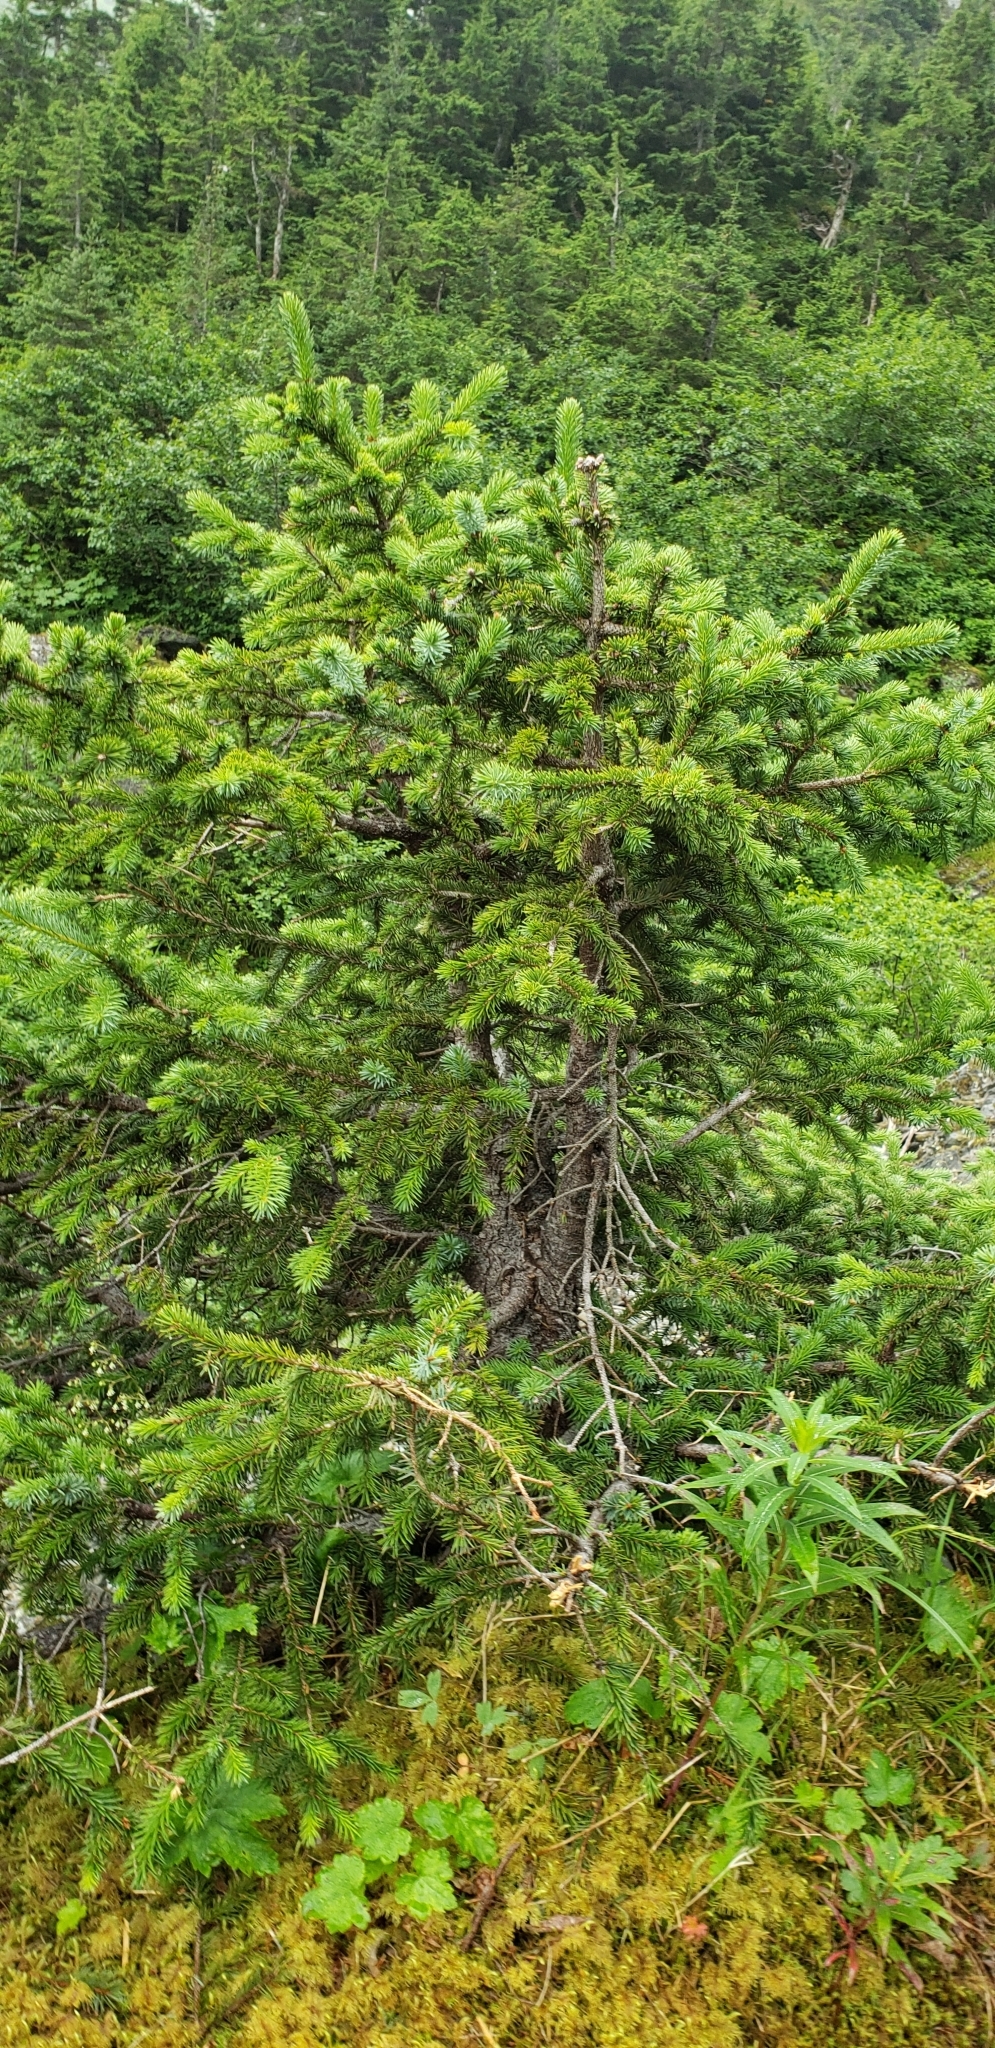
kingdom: Plantae
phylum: Tracheophyta
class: Pinopsida
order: Pinales
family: Pinaceae
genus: Picea
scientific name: Picea sitchensis
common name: Sitka spruce
